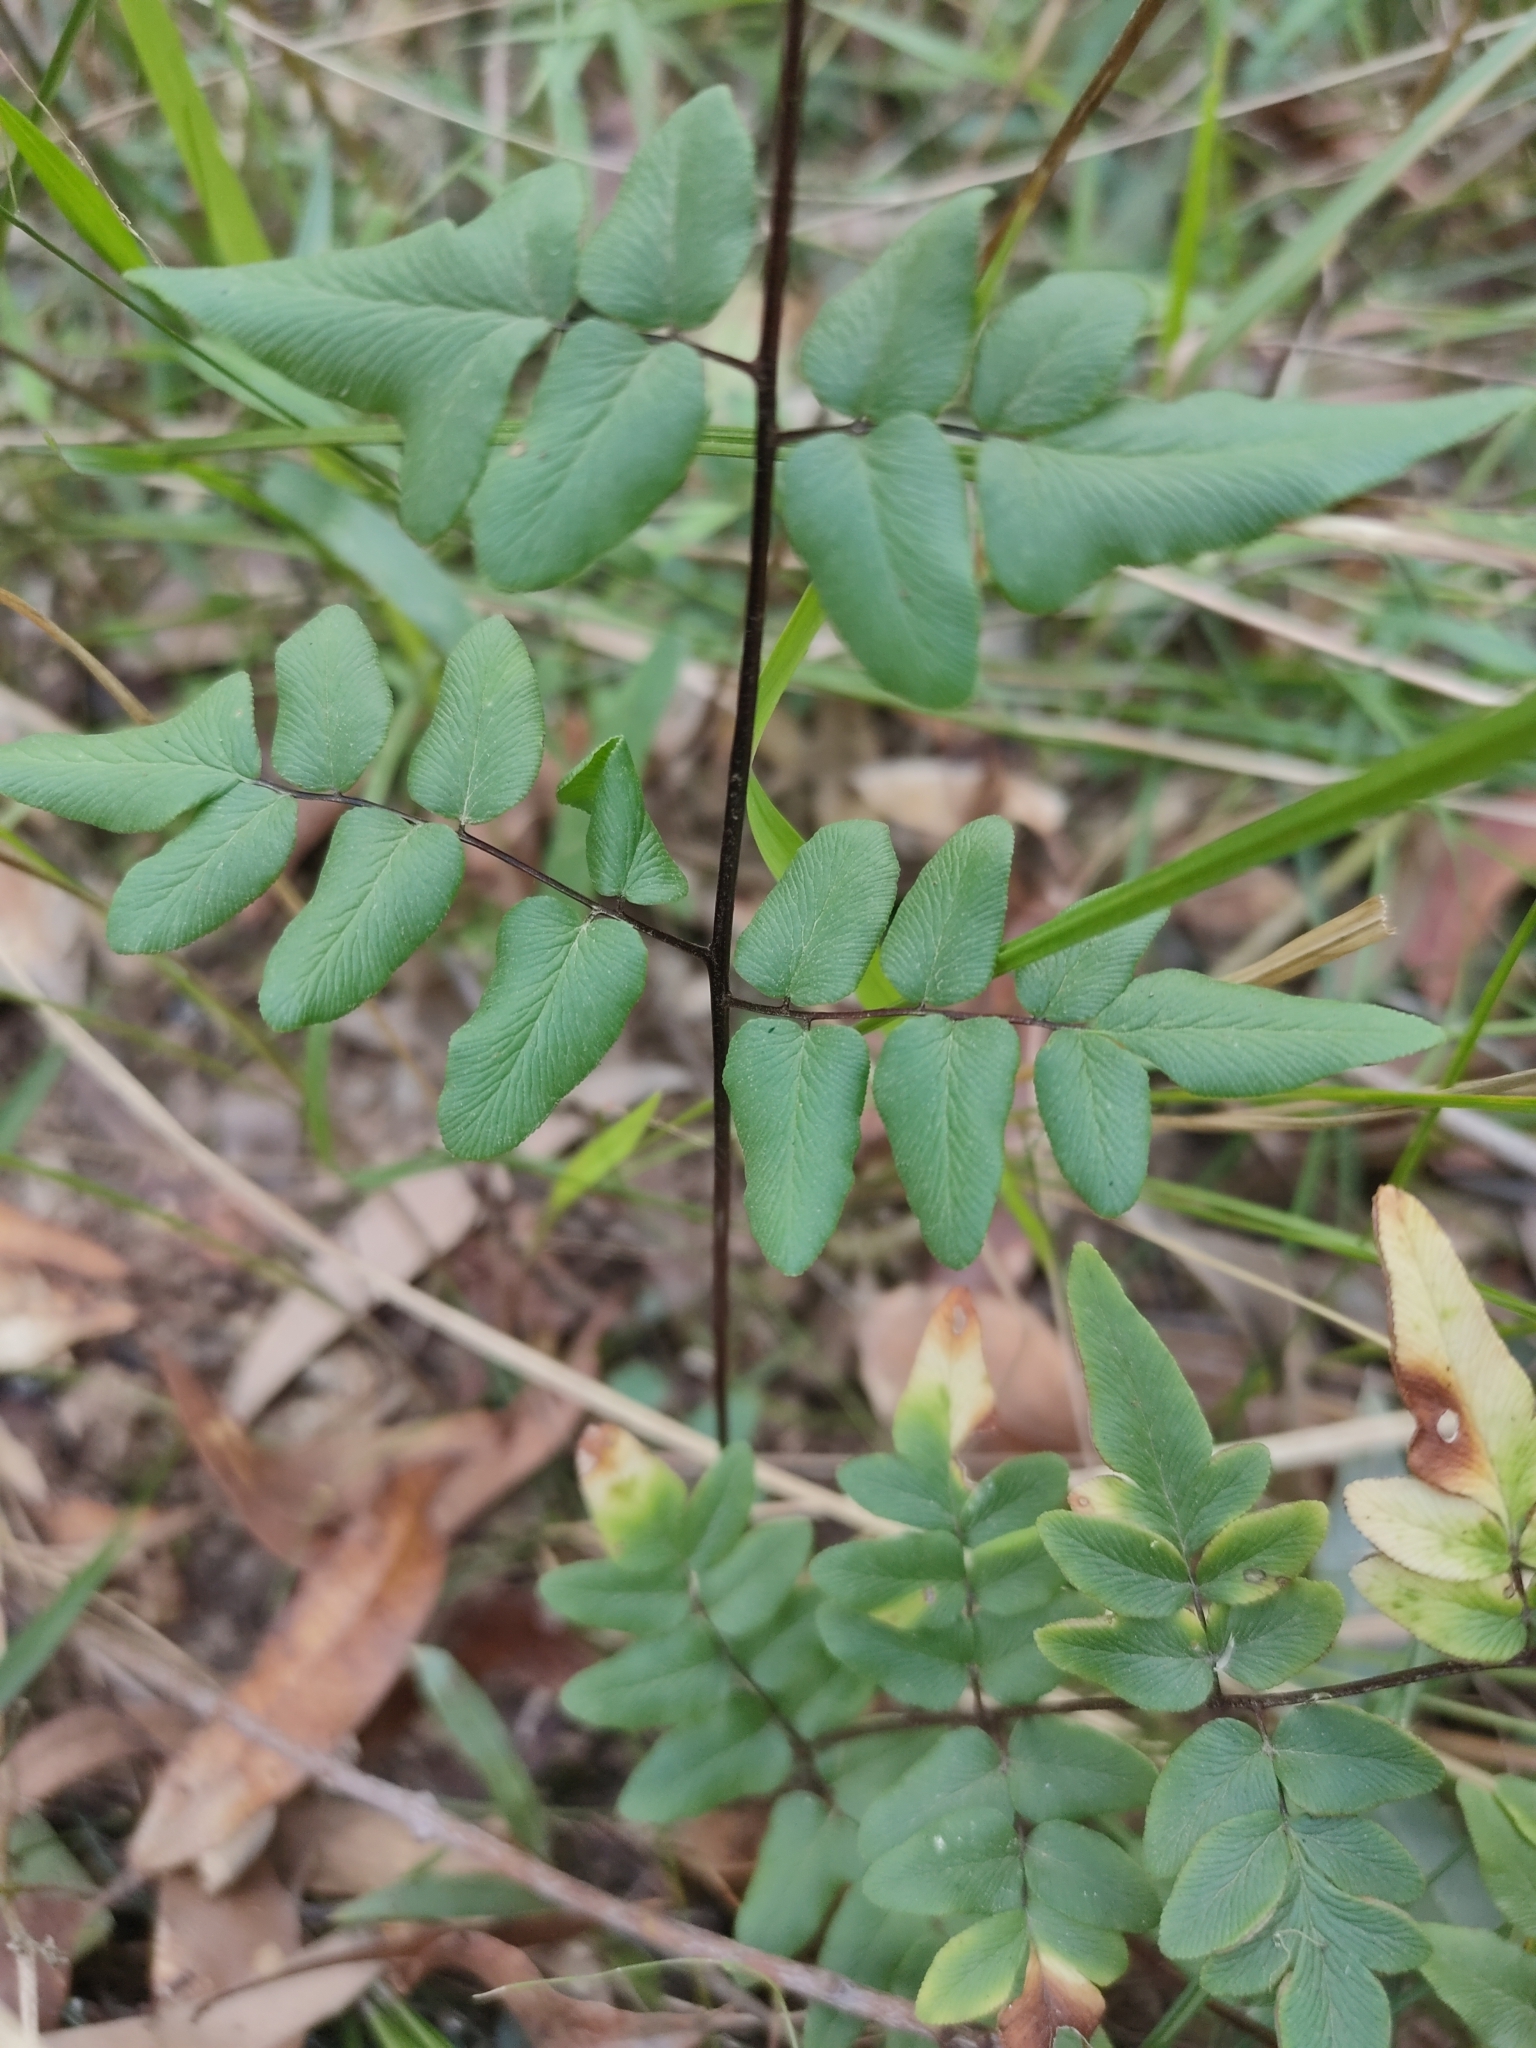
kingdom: Plantae
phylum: Tracheophyta
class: Polypodiopsida
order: Polypodiales
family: Pteridaceae
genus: Cheilanthes
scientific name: Cheilanthes viridis
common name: Green cliffbrake
